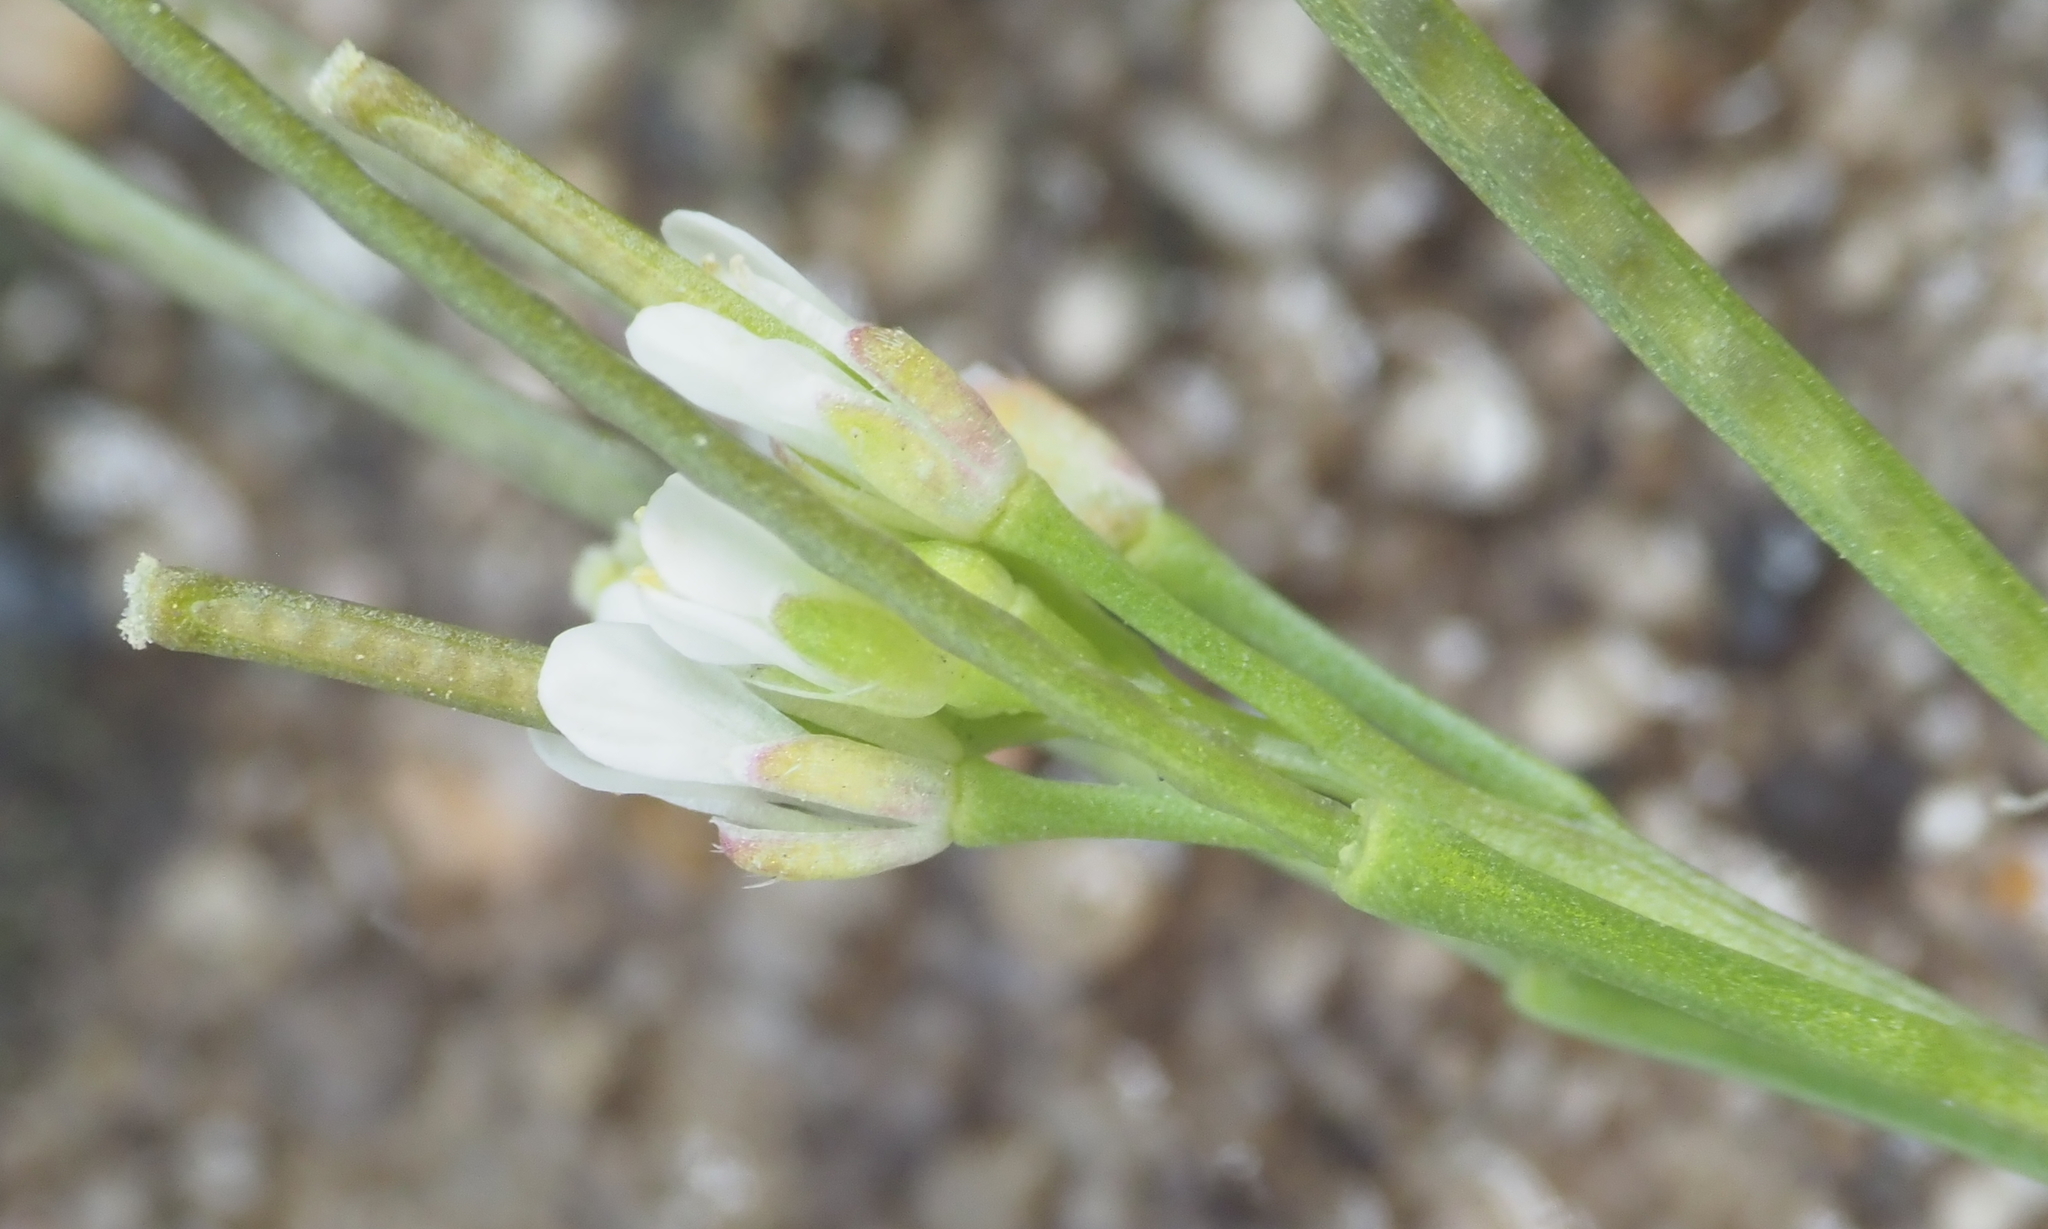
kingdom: Plantae
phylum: Tracheophyta
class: Magnoliopsida
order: Brassicales
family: Brassicaceae
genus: Cardamine
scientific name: Cardamine hirsuta
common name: Hairy bittercress
